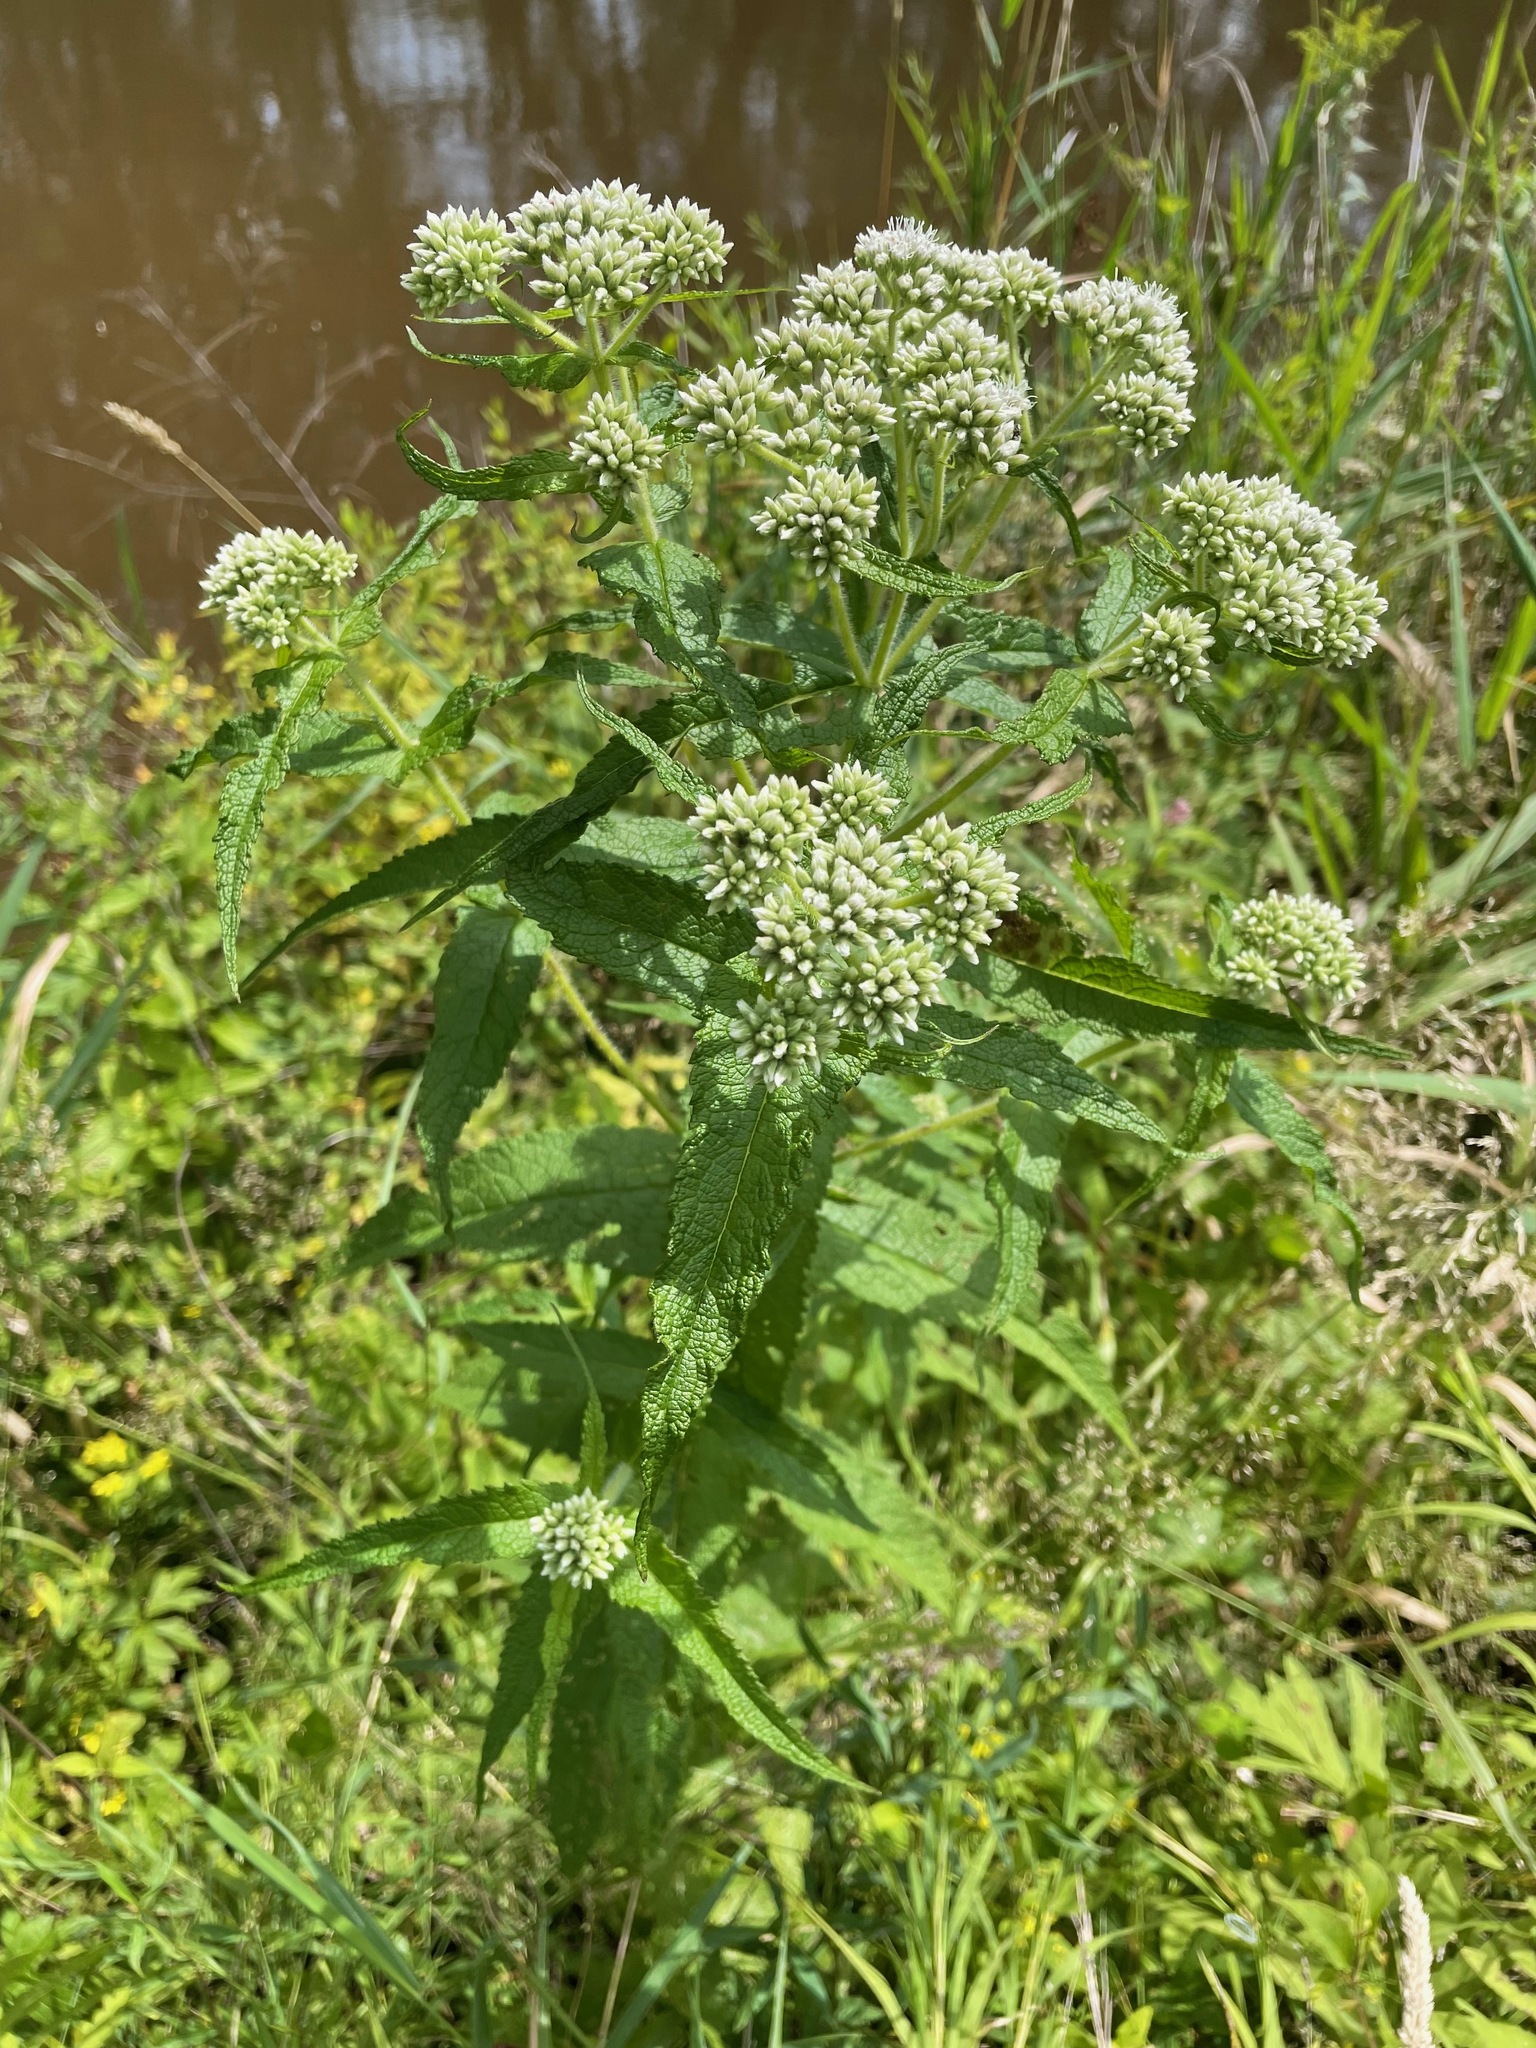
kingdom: Plantae
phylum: Tracheophyta
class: Magnoliopsida
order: Asterales
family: Asteraceae
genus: Eupatorium
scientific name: Eupatorium perfoliatum
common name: Boneset
